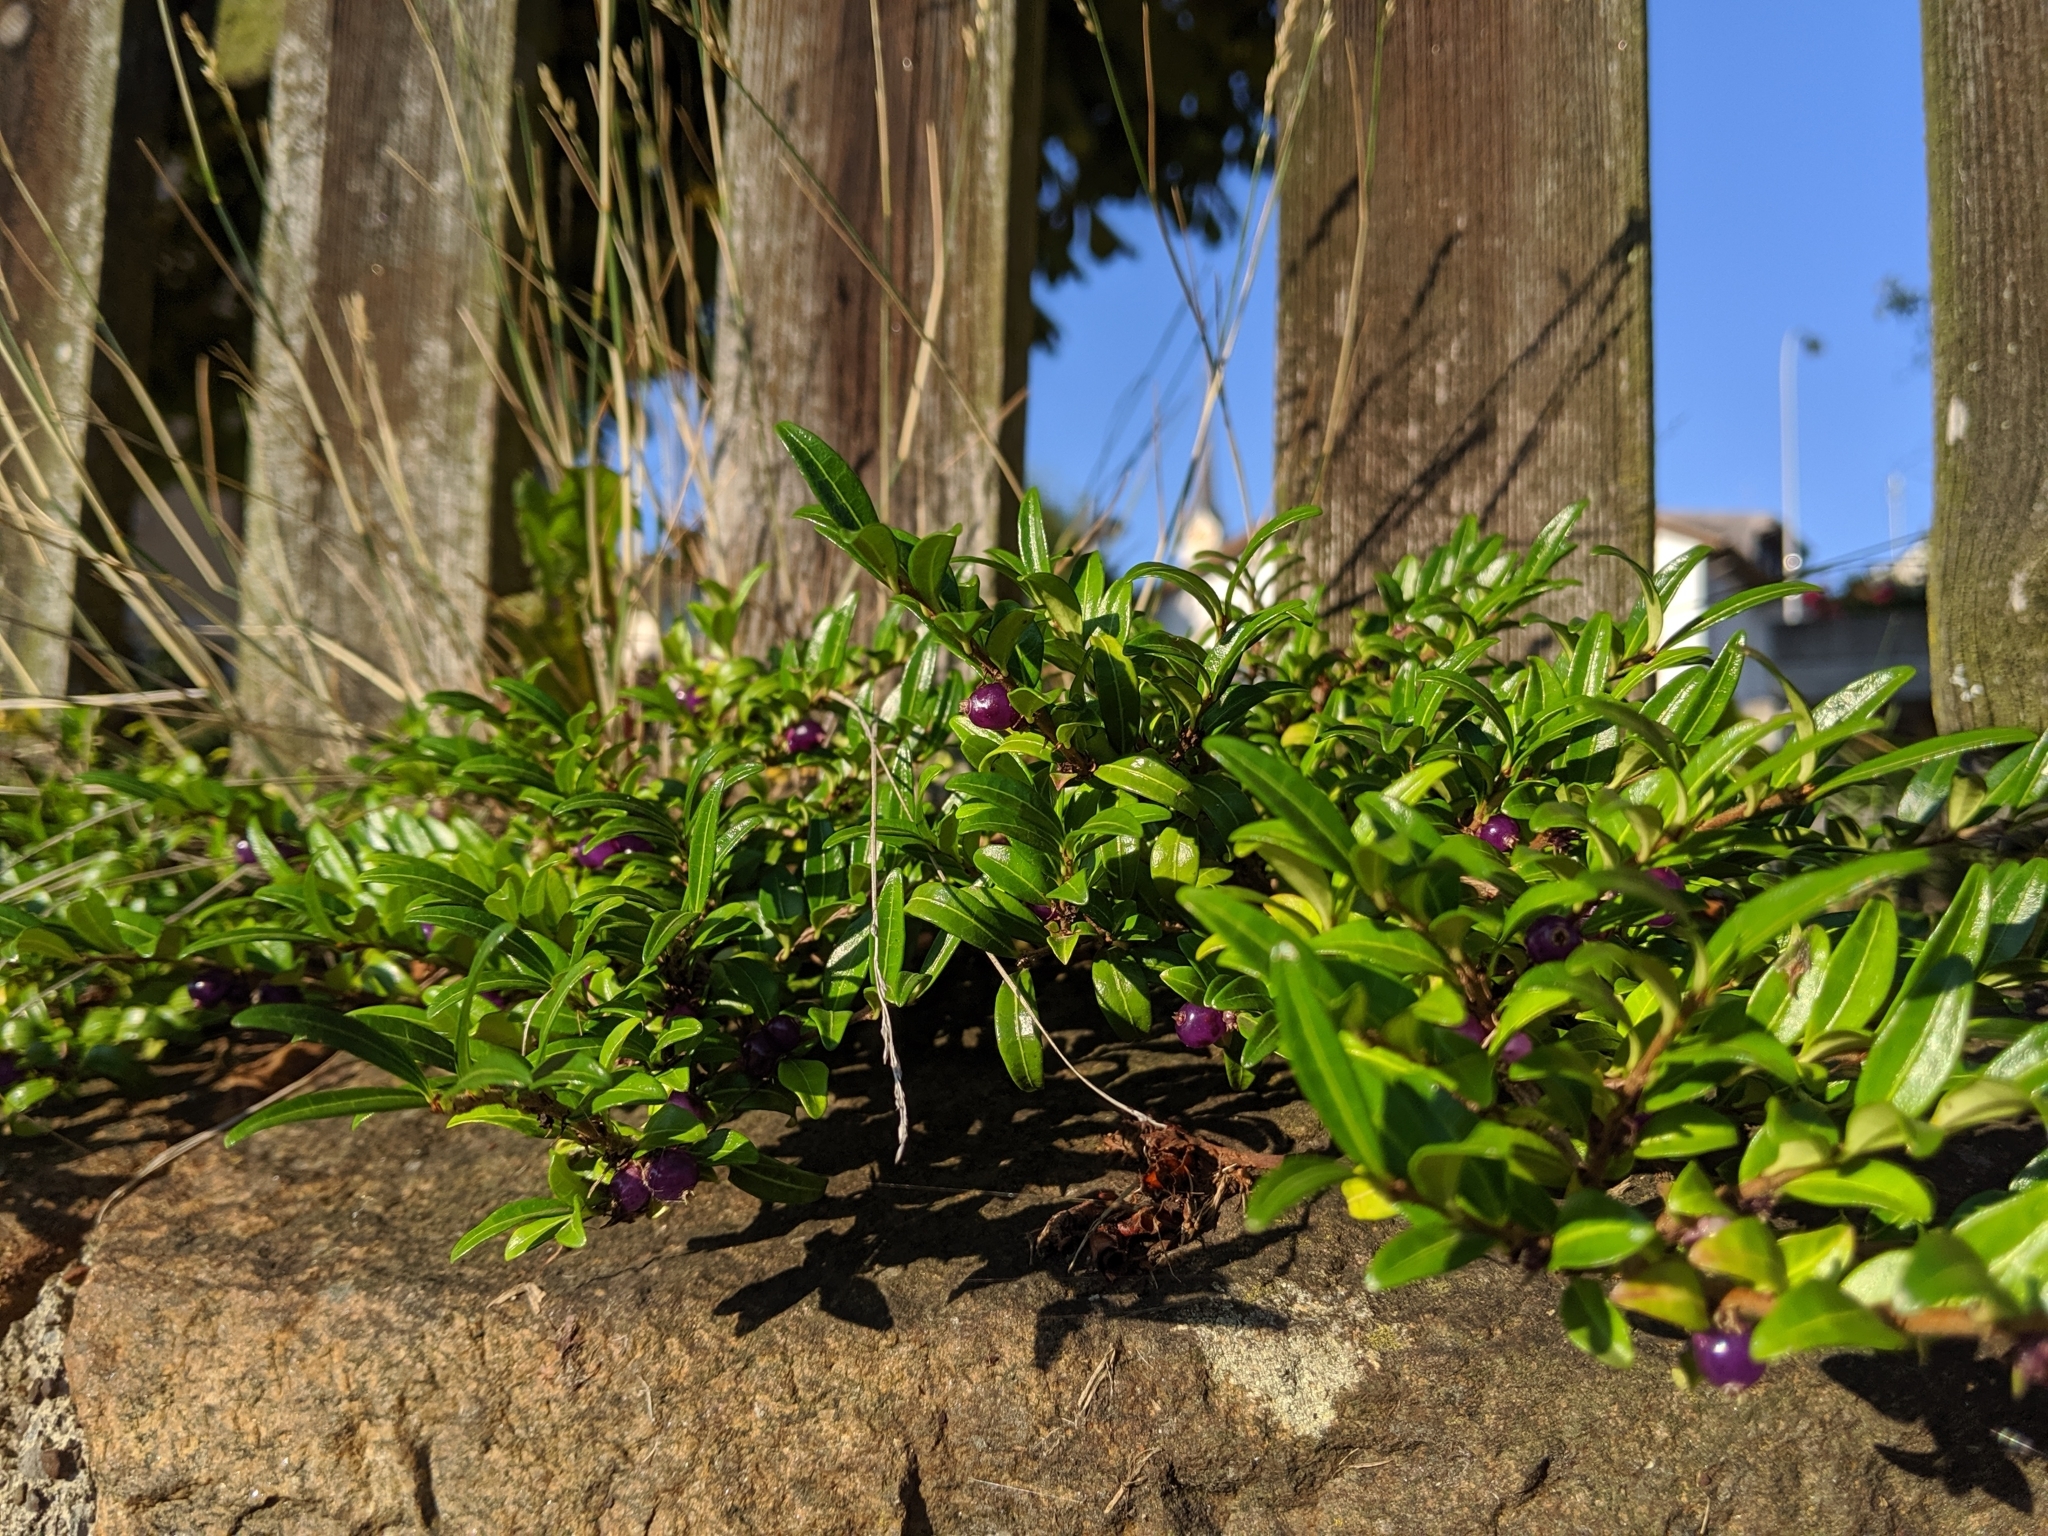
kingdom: Plantae
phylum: Tracheophyta
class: Magnoliopsida
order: Dipsacales
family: Caprifoliaceae
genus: Lonicera
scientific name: Lonicera pileata
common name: Box-leaved honeysuckle
